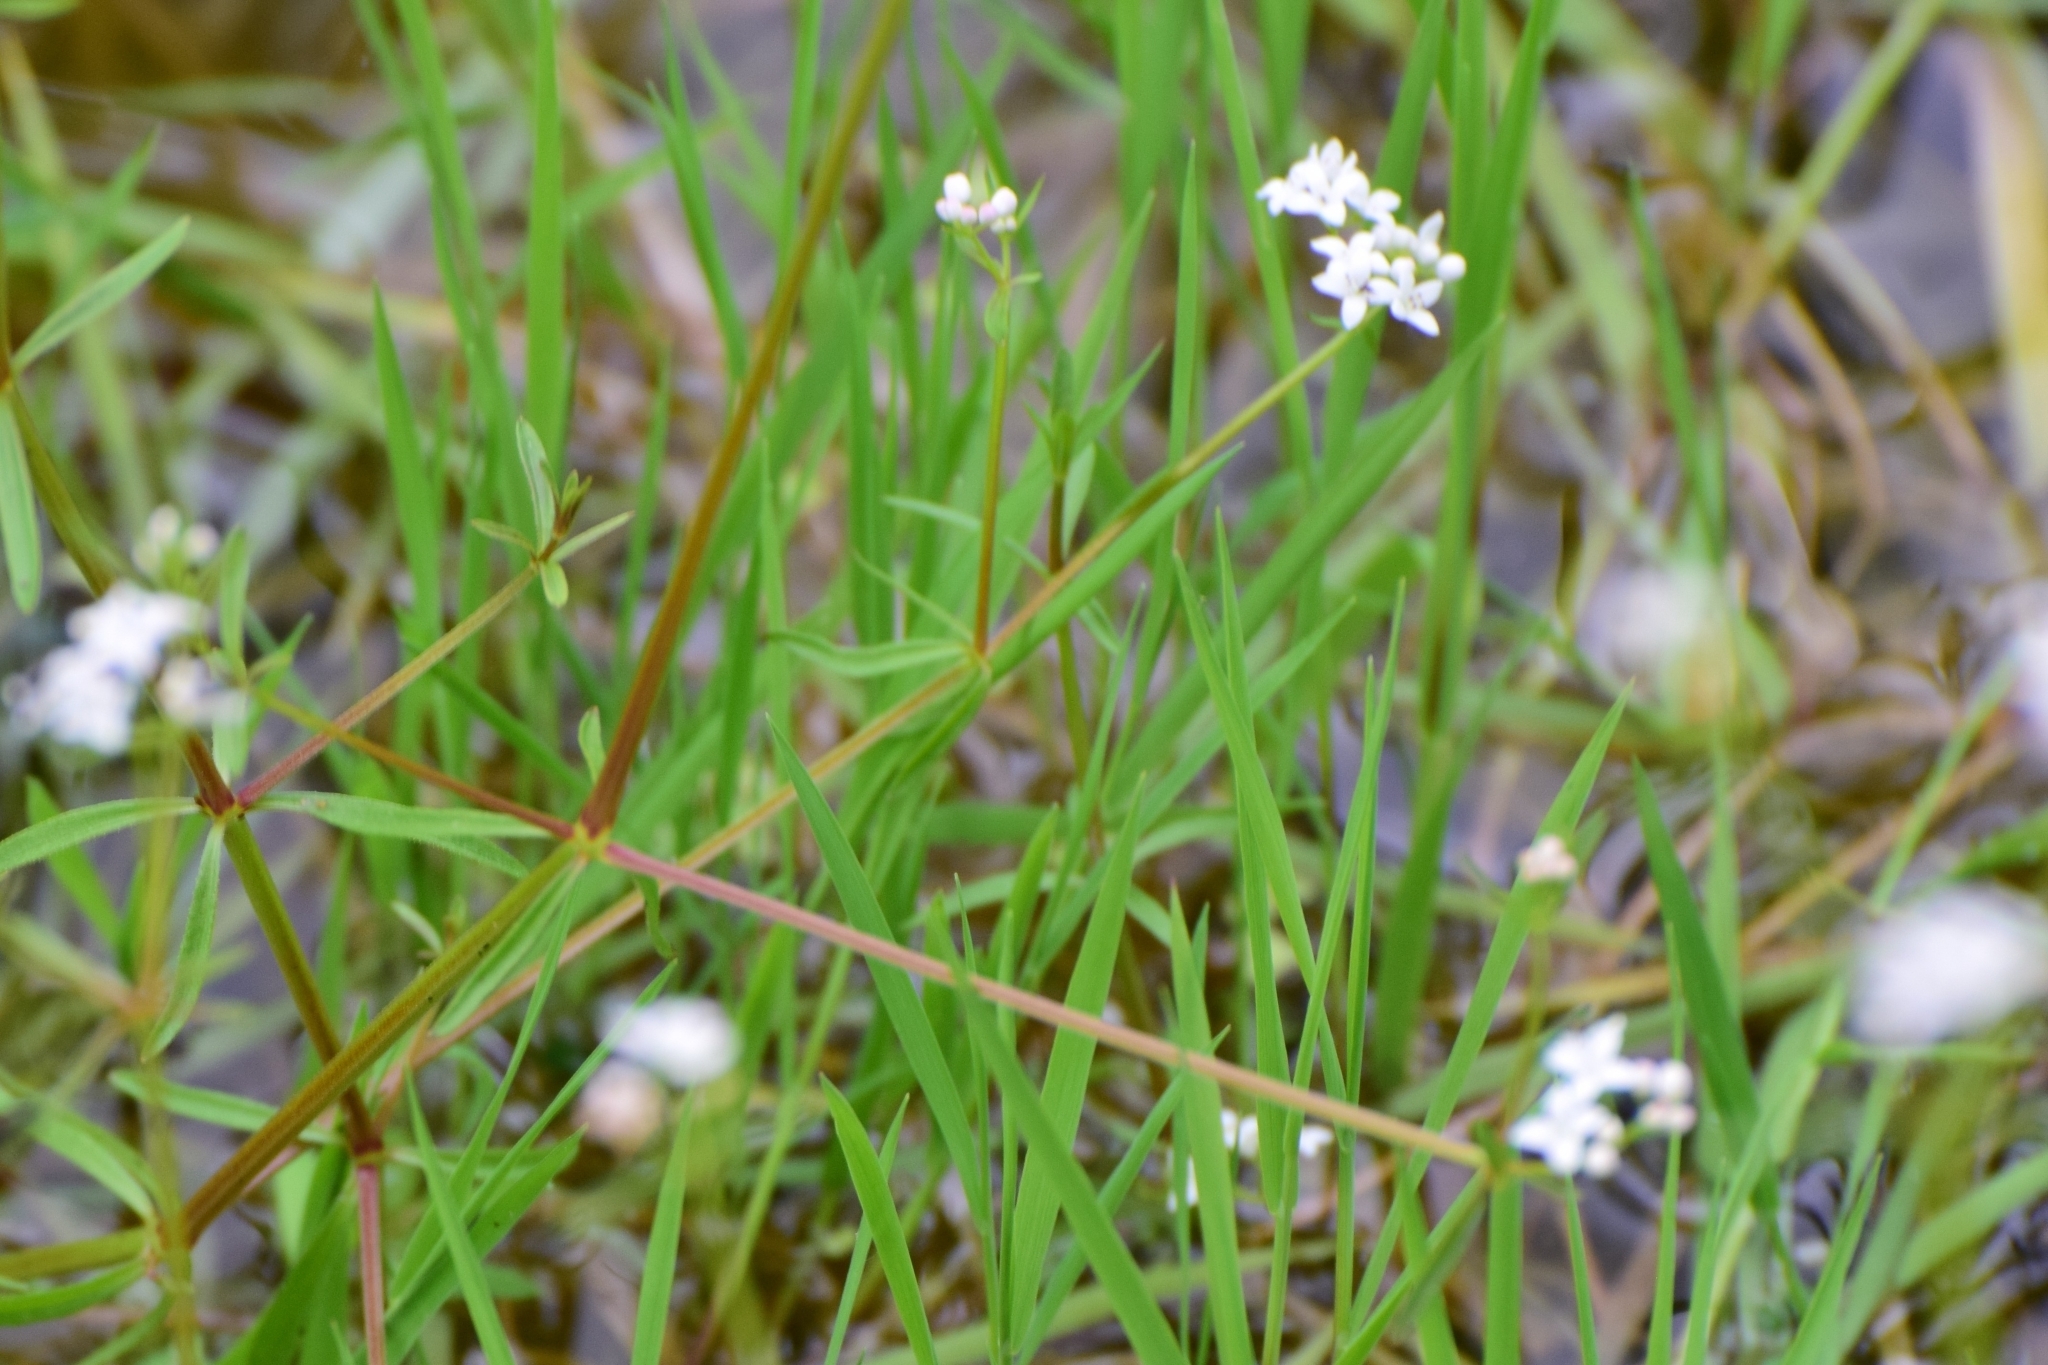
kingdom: Plantae
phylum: Tracheophyta
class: Magnoliopsida
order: Gentianales
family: Rubiaceae
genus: Galium
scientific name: Galium palustre
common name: Common marsh-bedstraw
